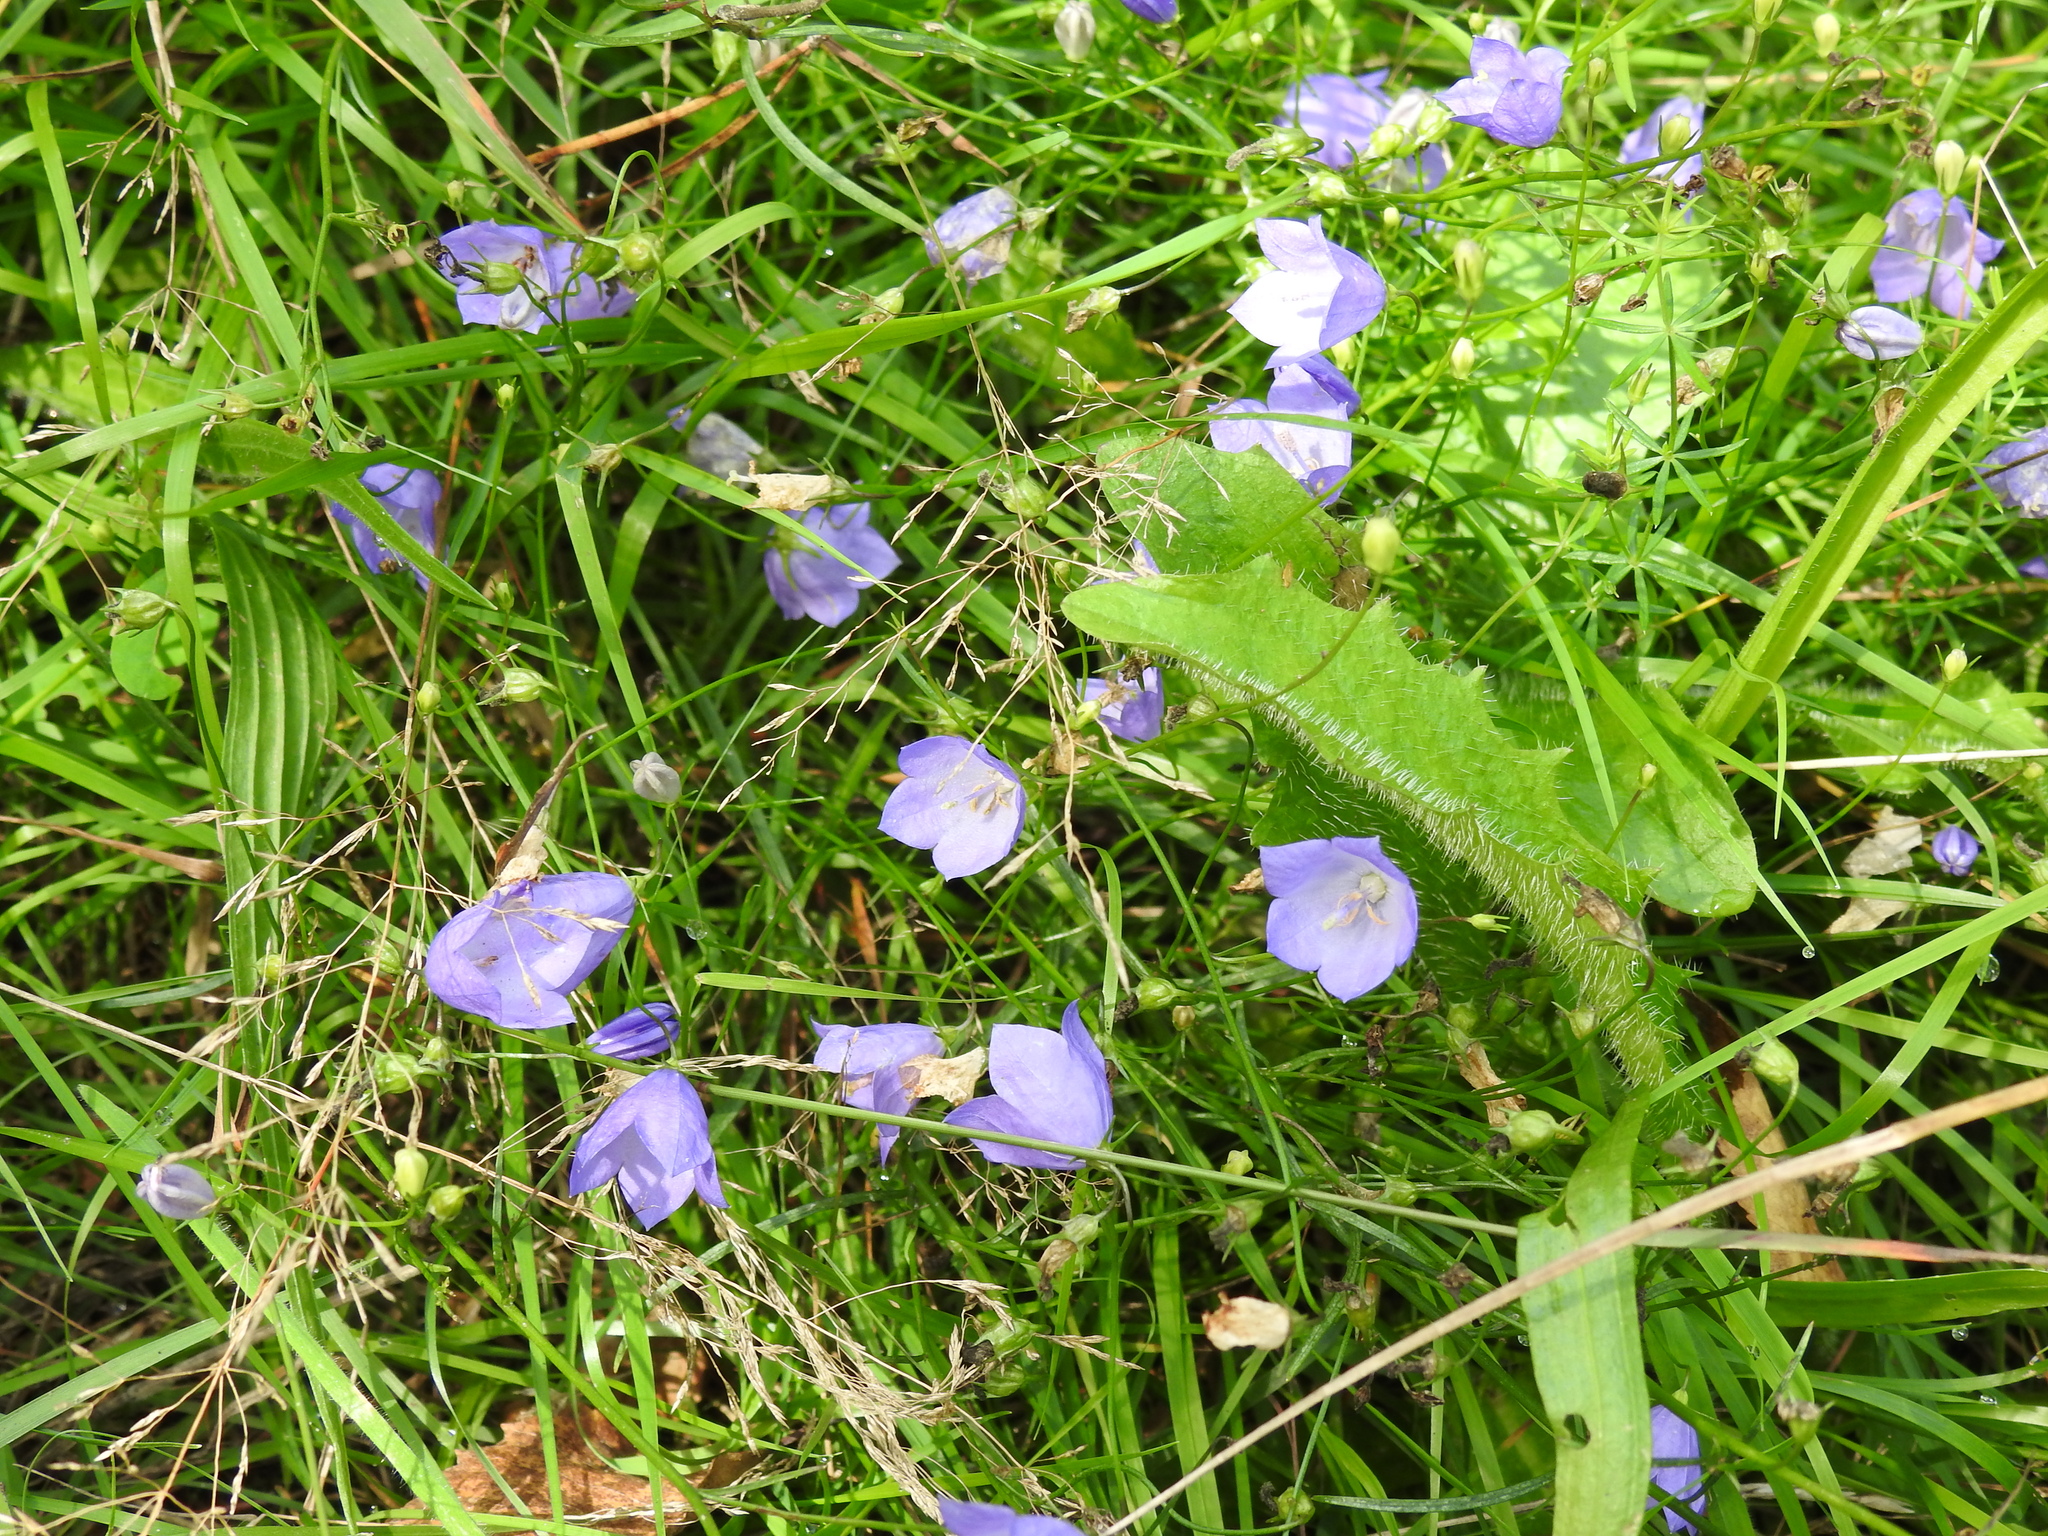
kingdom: Plantae
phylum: Tracheophyta
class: Magnoliopsida
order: Asterales
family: Campanulaceae
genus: Campanula
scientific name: Campanula rotundifolia
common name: Harebell
